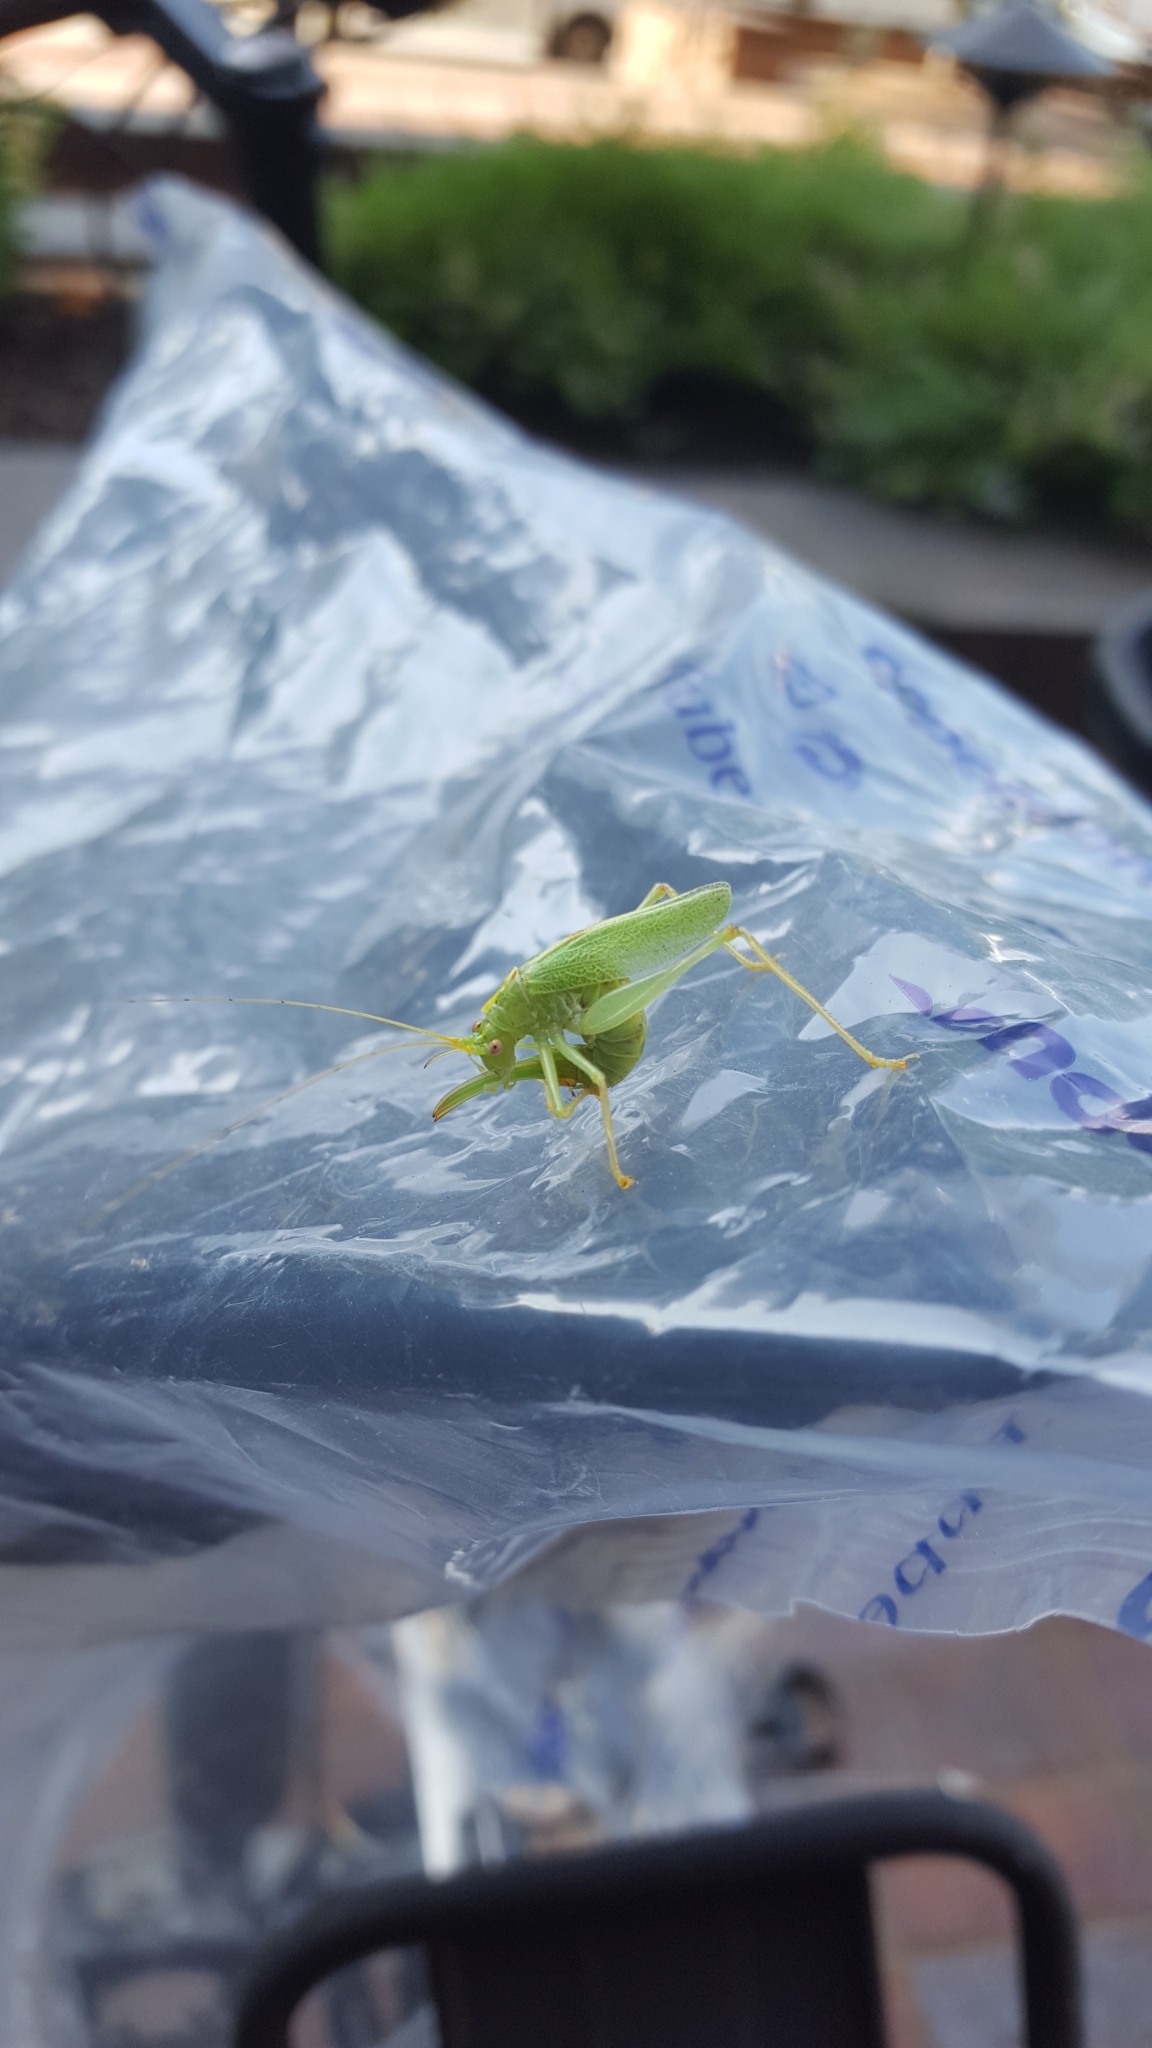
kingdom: Animalia
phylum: Arthropoda
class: Insecta
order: Orthoptera
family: Tettigoniidae
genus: Meconema
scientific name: Meconema thalassinum
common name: Oak bush-cricket
